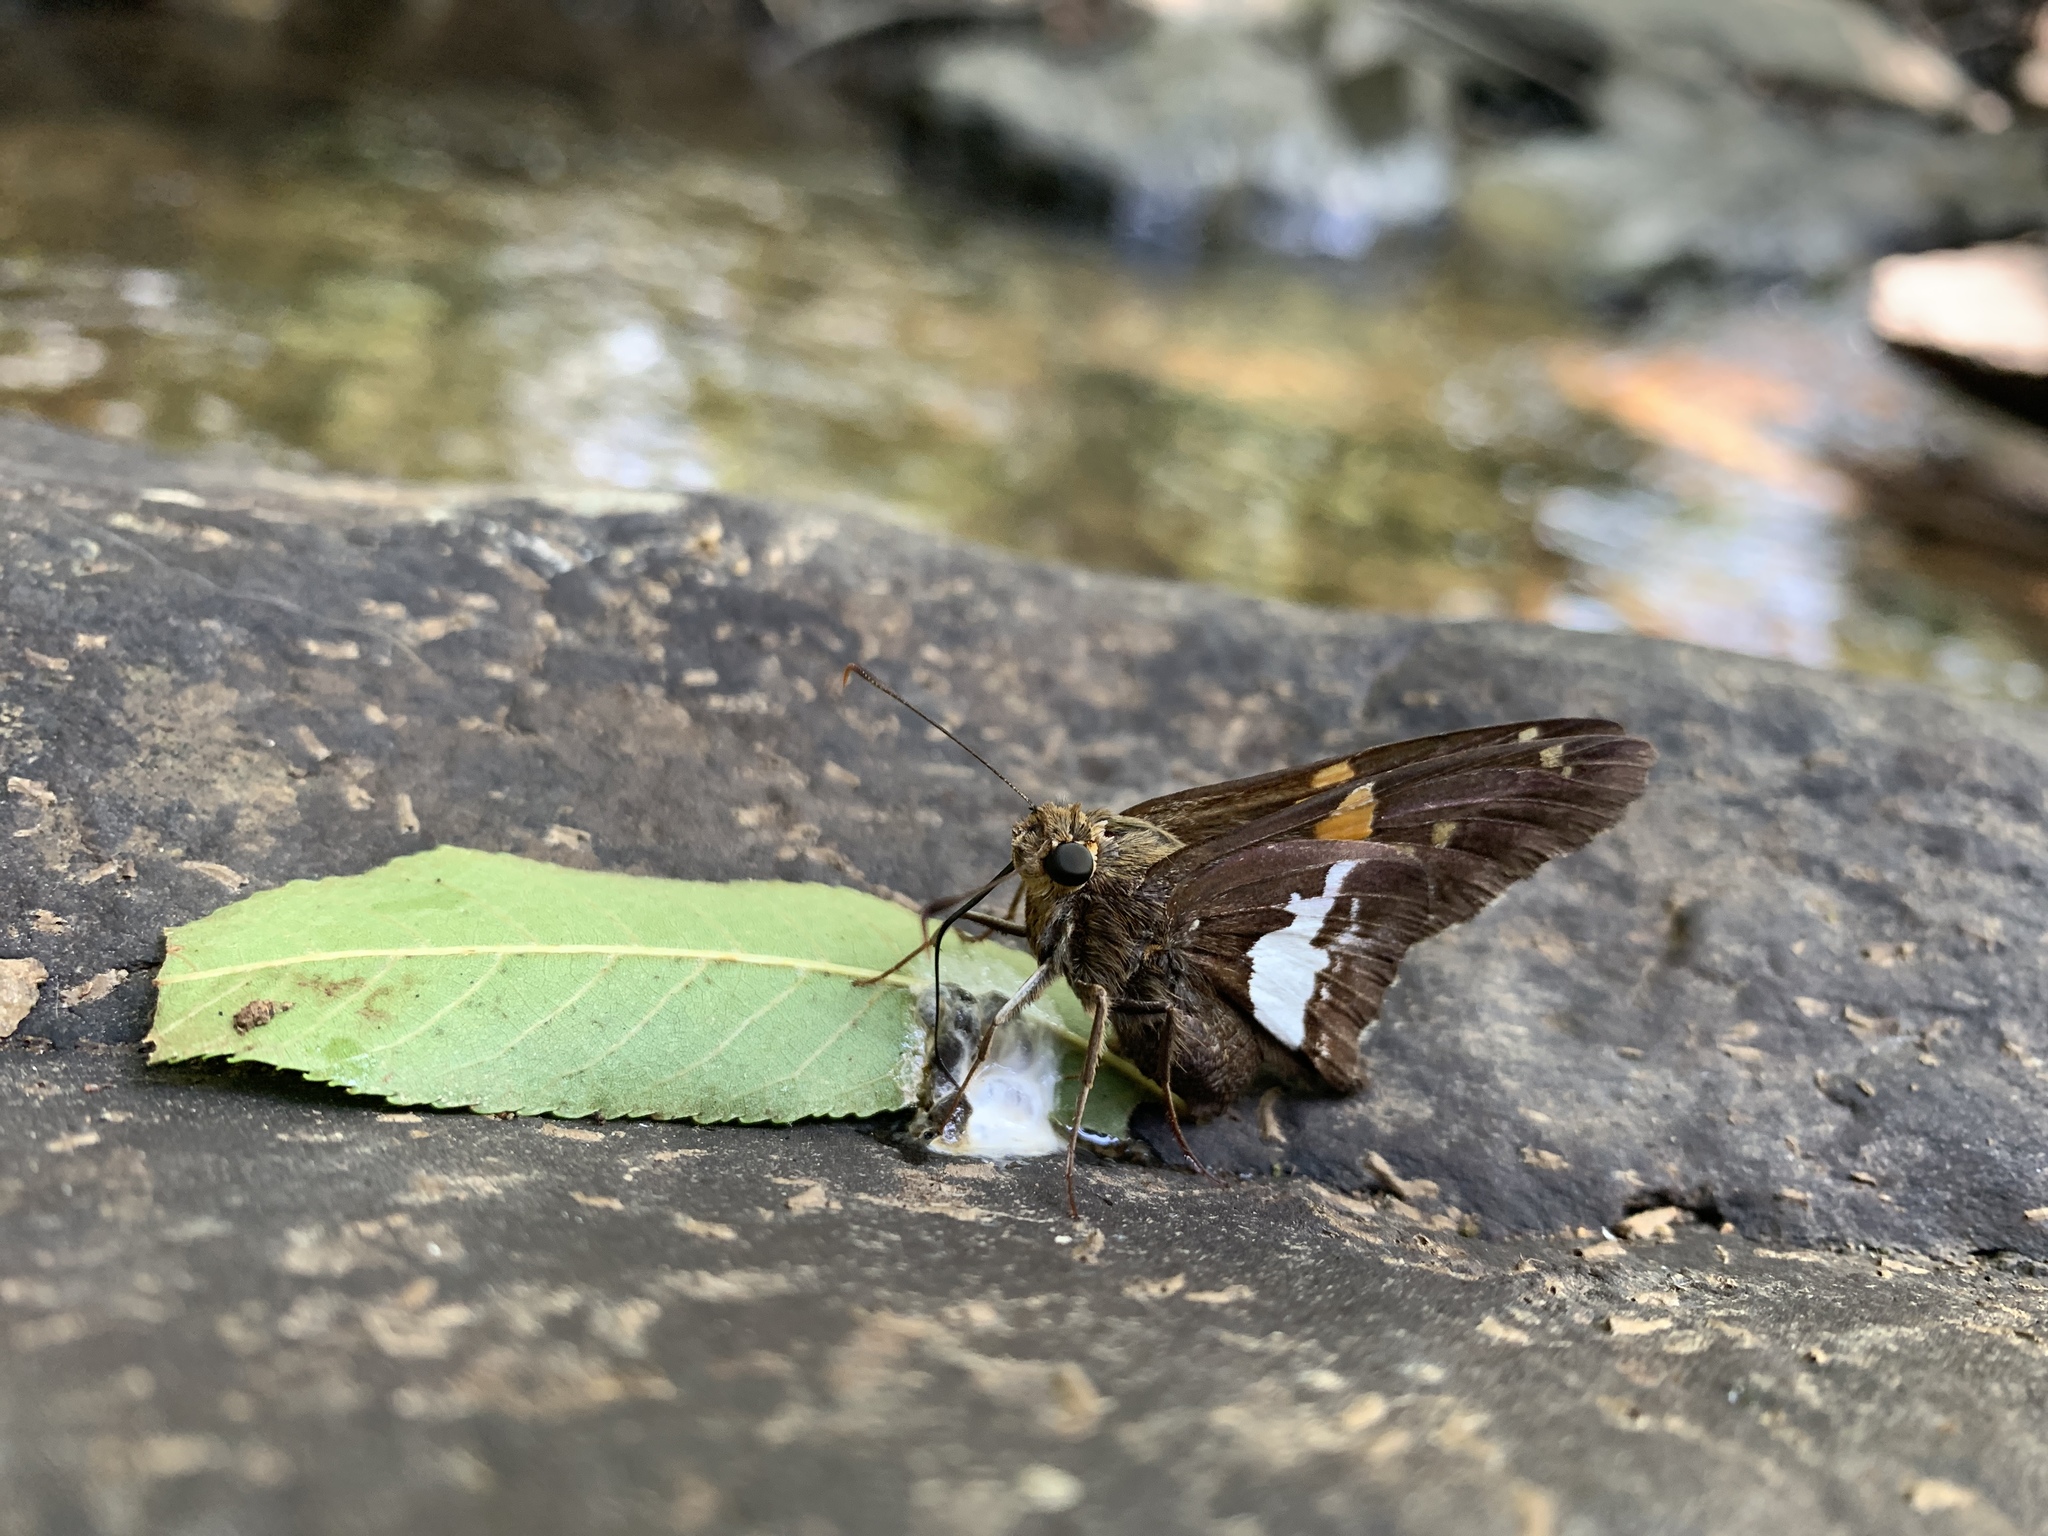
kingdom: Animalia
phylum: Arthropoda
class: Insecta
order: Lepidoptera
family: Hesperiidae
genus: Epargyreus
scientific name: Epargyreus clarus
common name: Silver-spotted skipper
